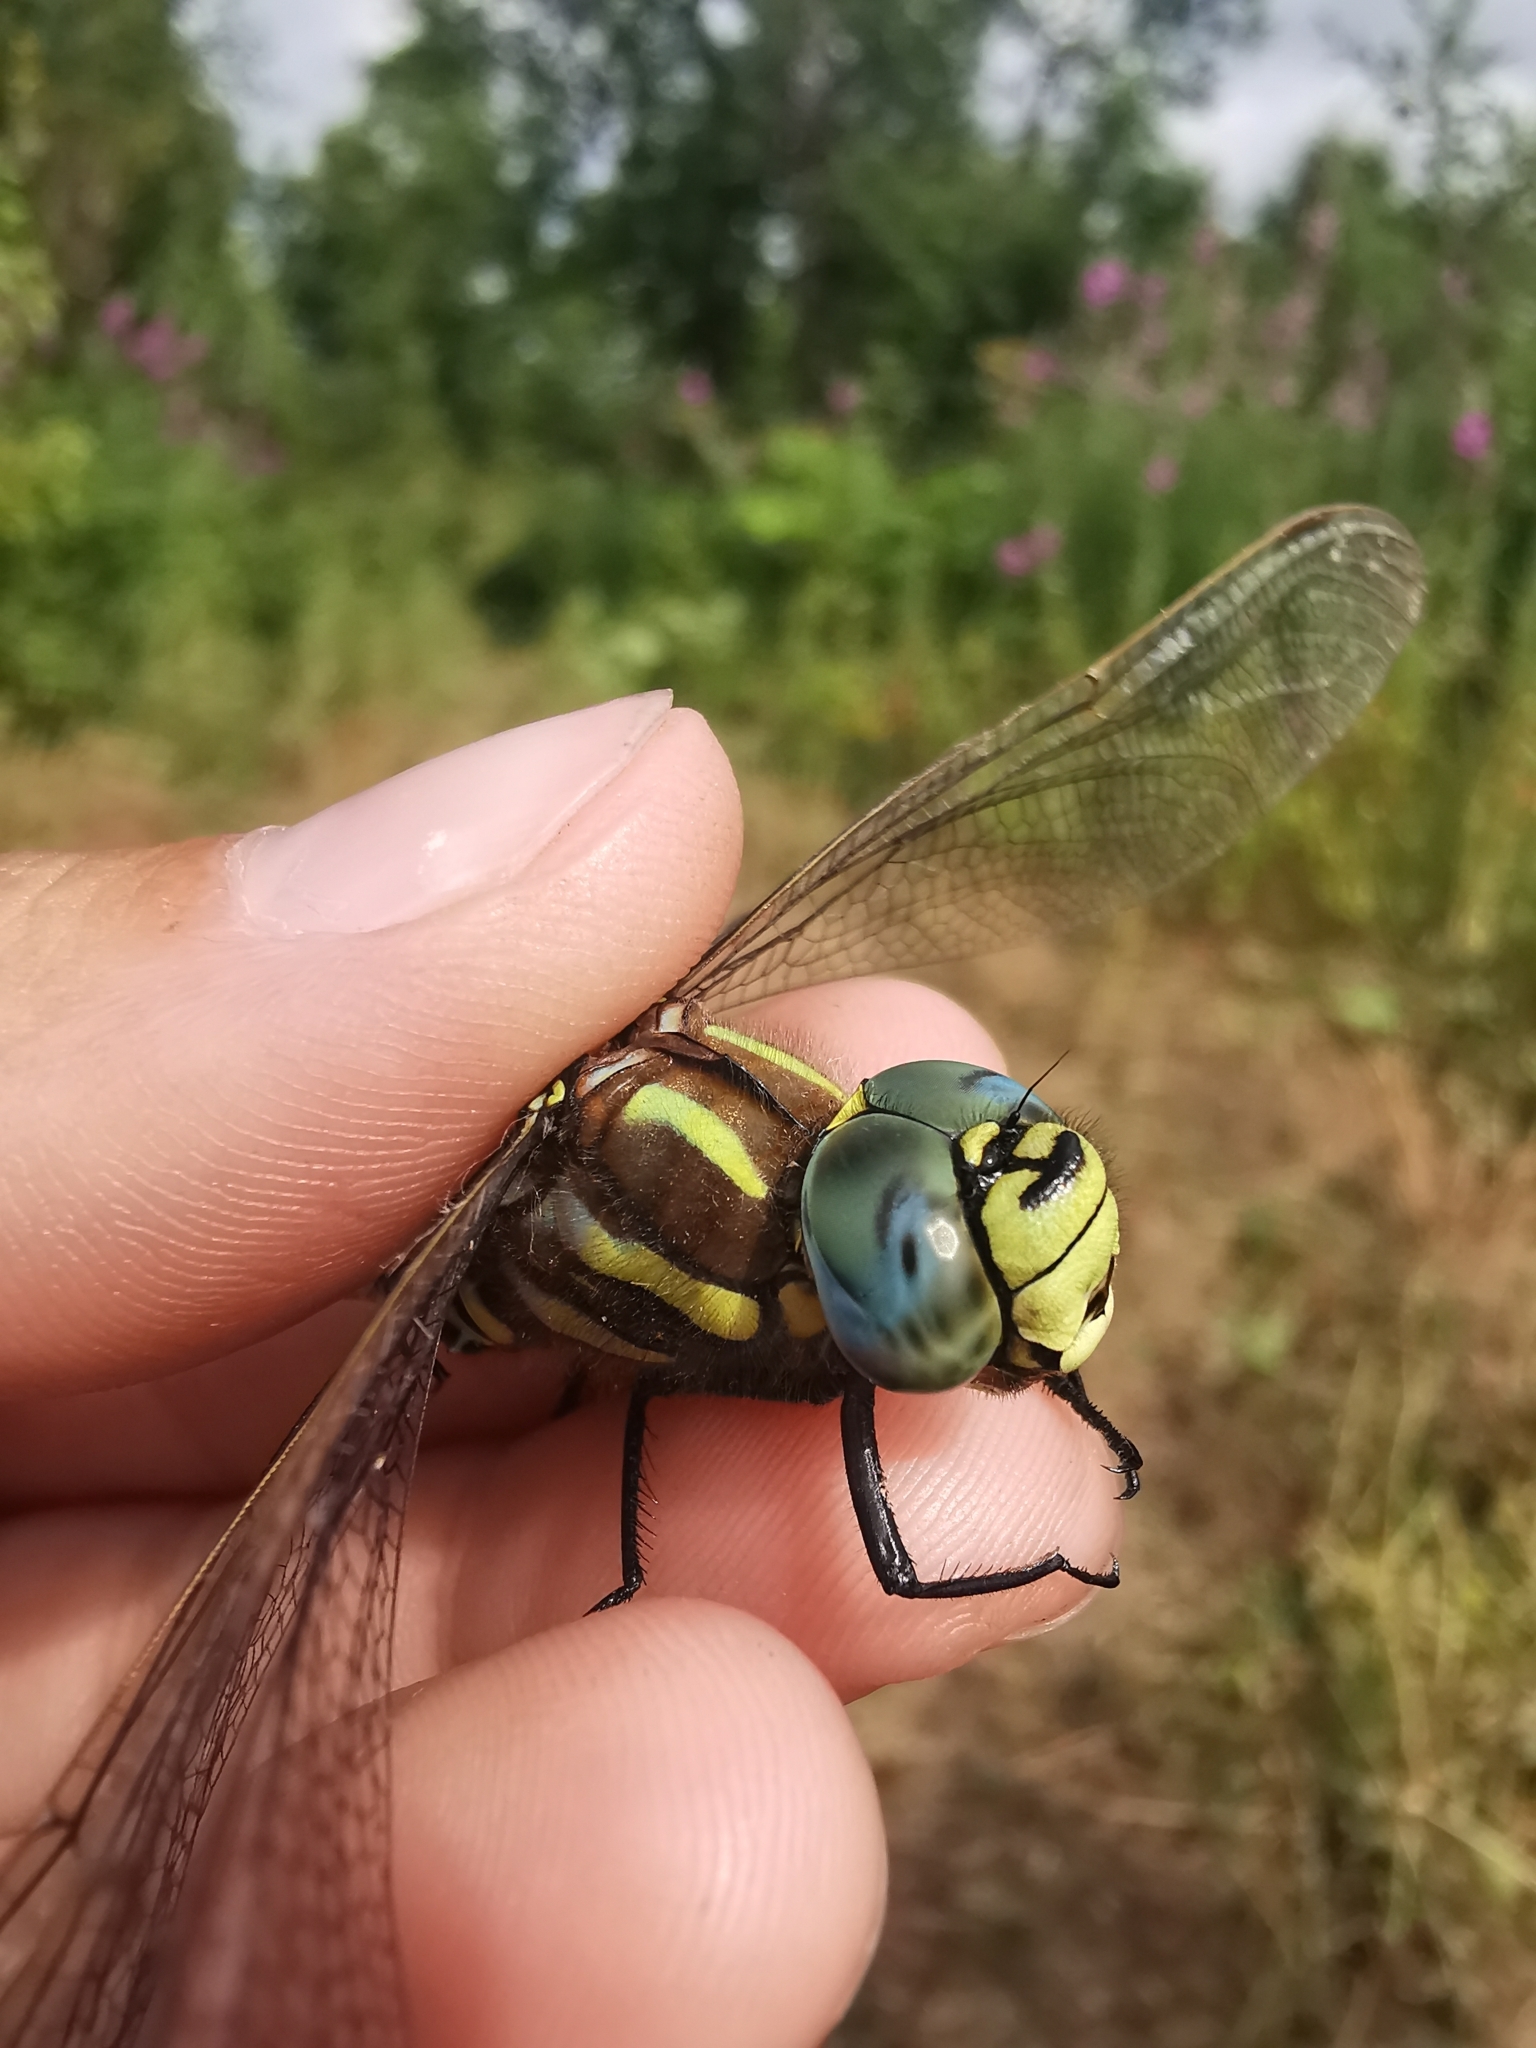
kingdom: Animalia
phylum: Arthropoda
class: Insecta
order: Odonata
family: Aeshnidae
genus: Aeshna
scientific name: Aeshna juncea
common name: Moorland hawker
